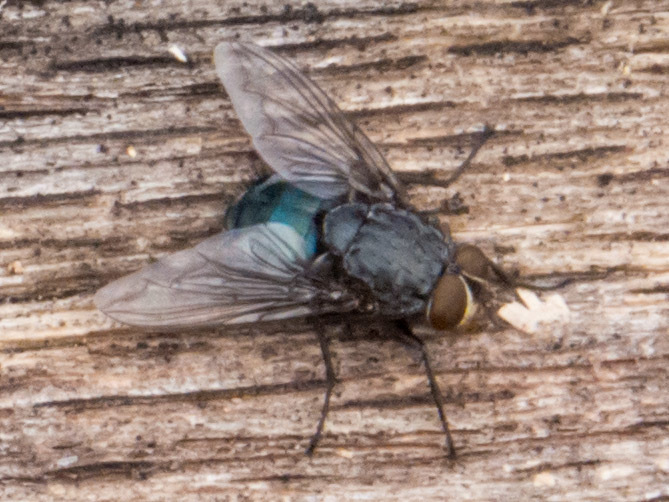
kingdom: Animalia
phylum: Arthropoda
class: Insecta
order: Diptera
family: Calliphoridae
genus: Calliphora
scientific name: Calliphora
